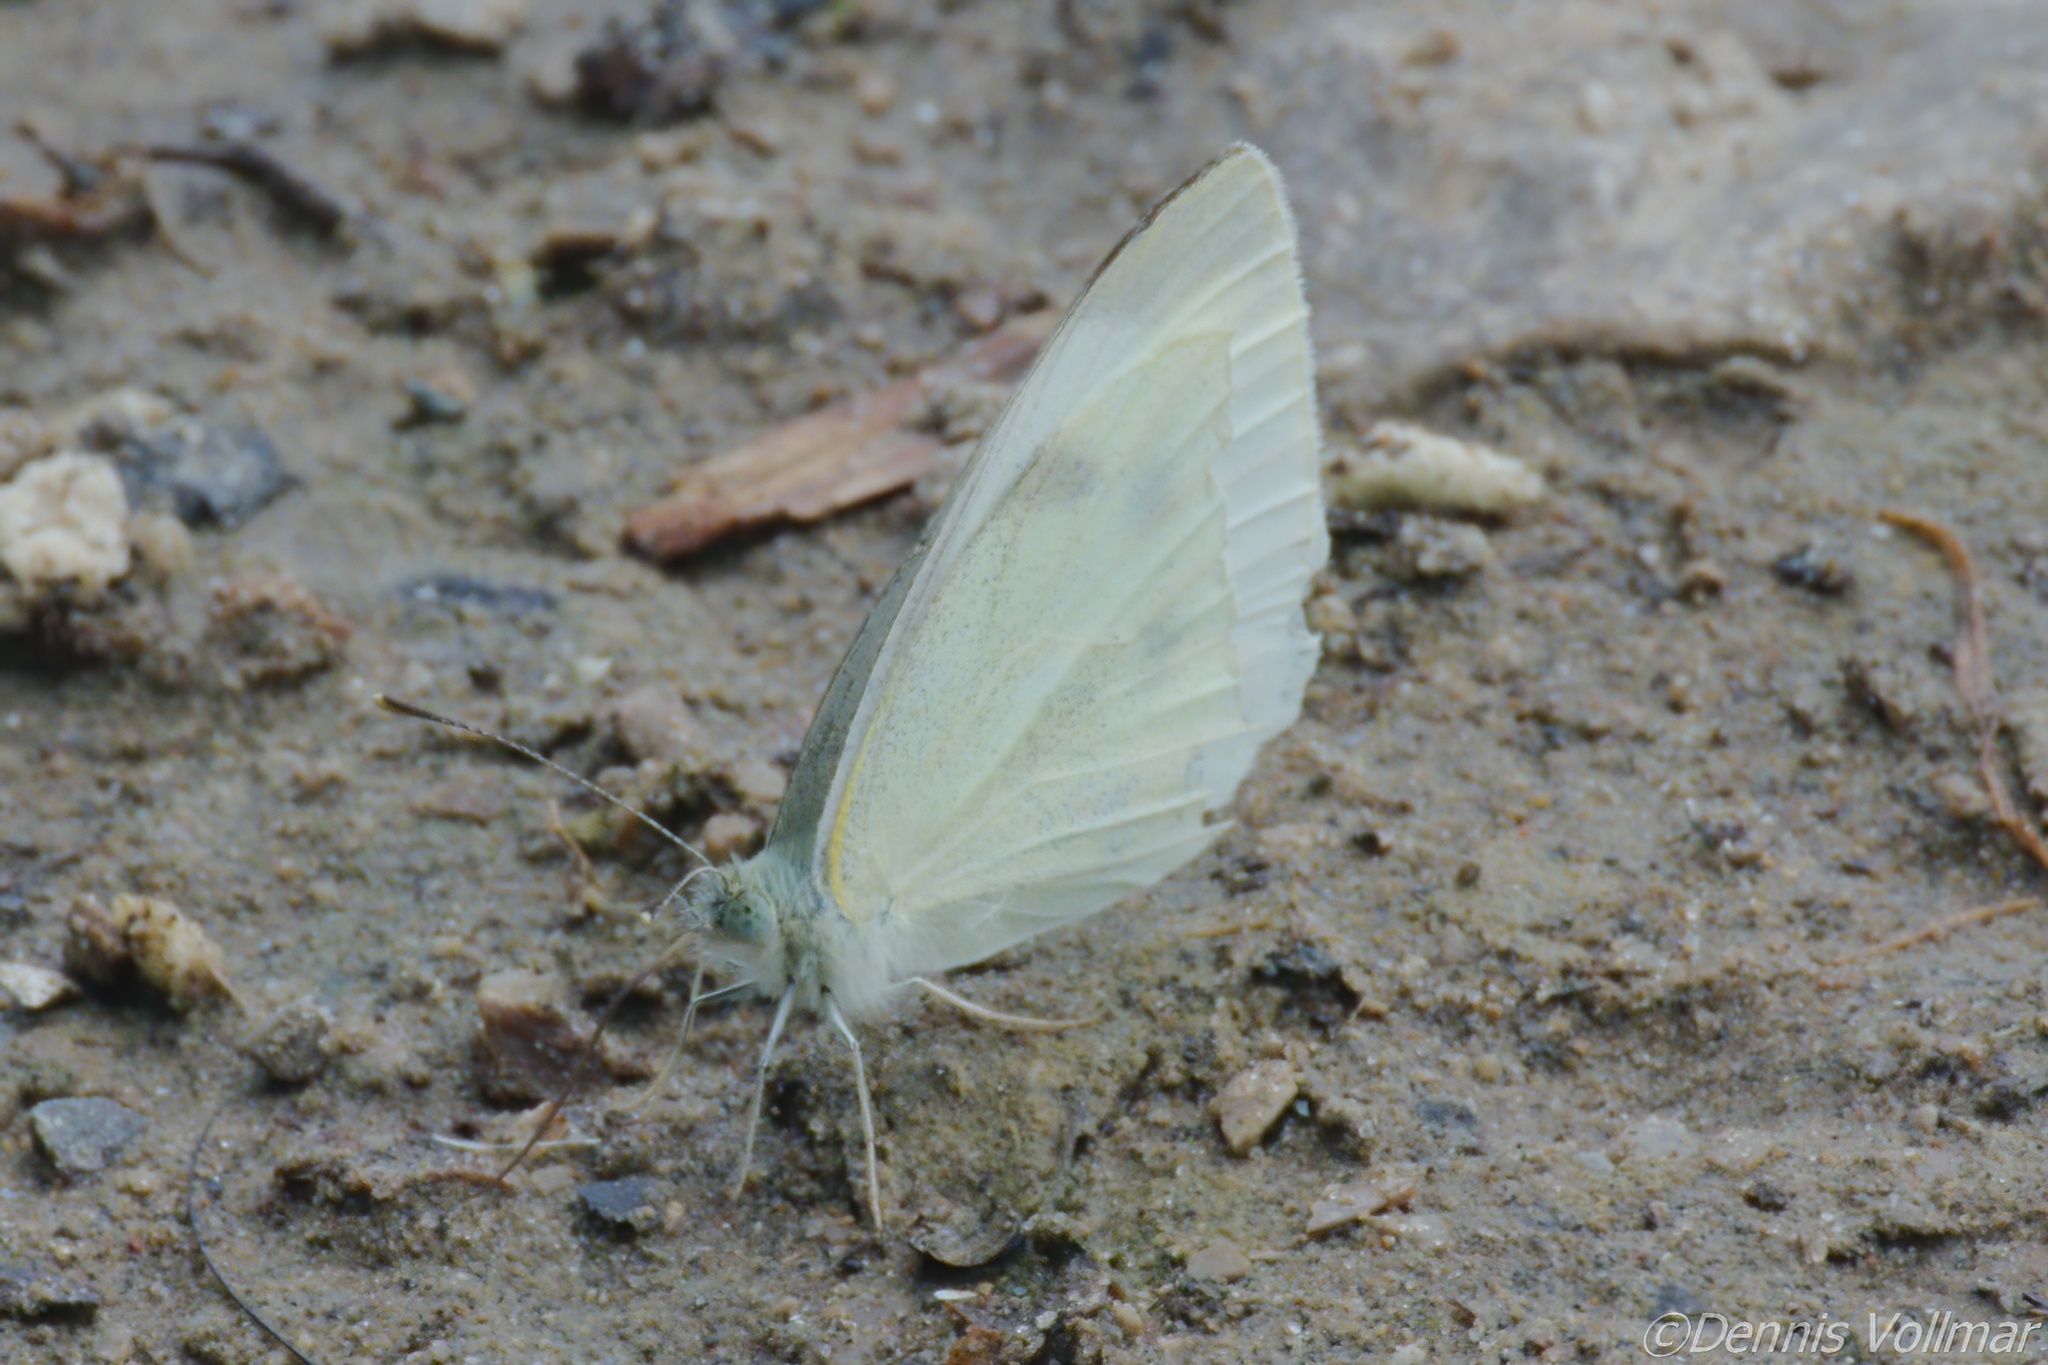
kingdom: Animalia
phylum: Arthropoda
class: Insecta
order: Lepidoptera
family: Pieridae
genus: Pieris
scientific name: Pieris rapae
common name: Small white
